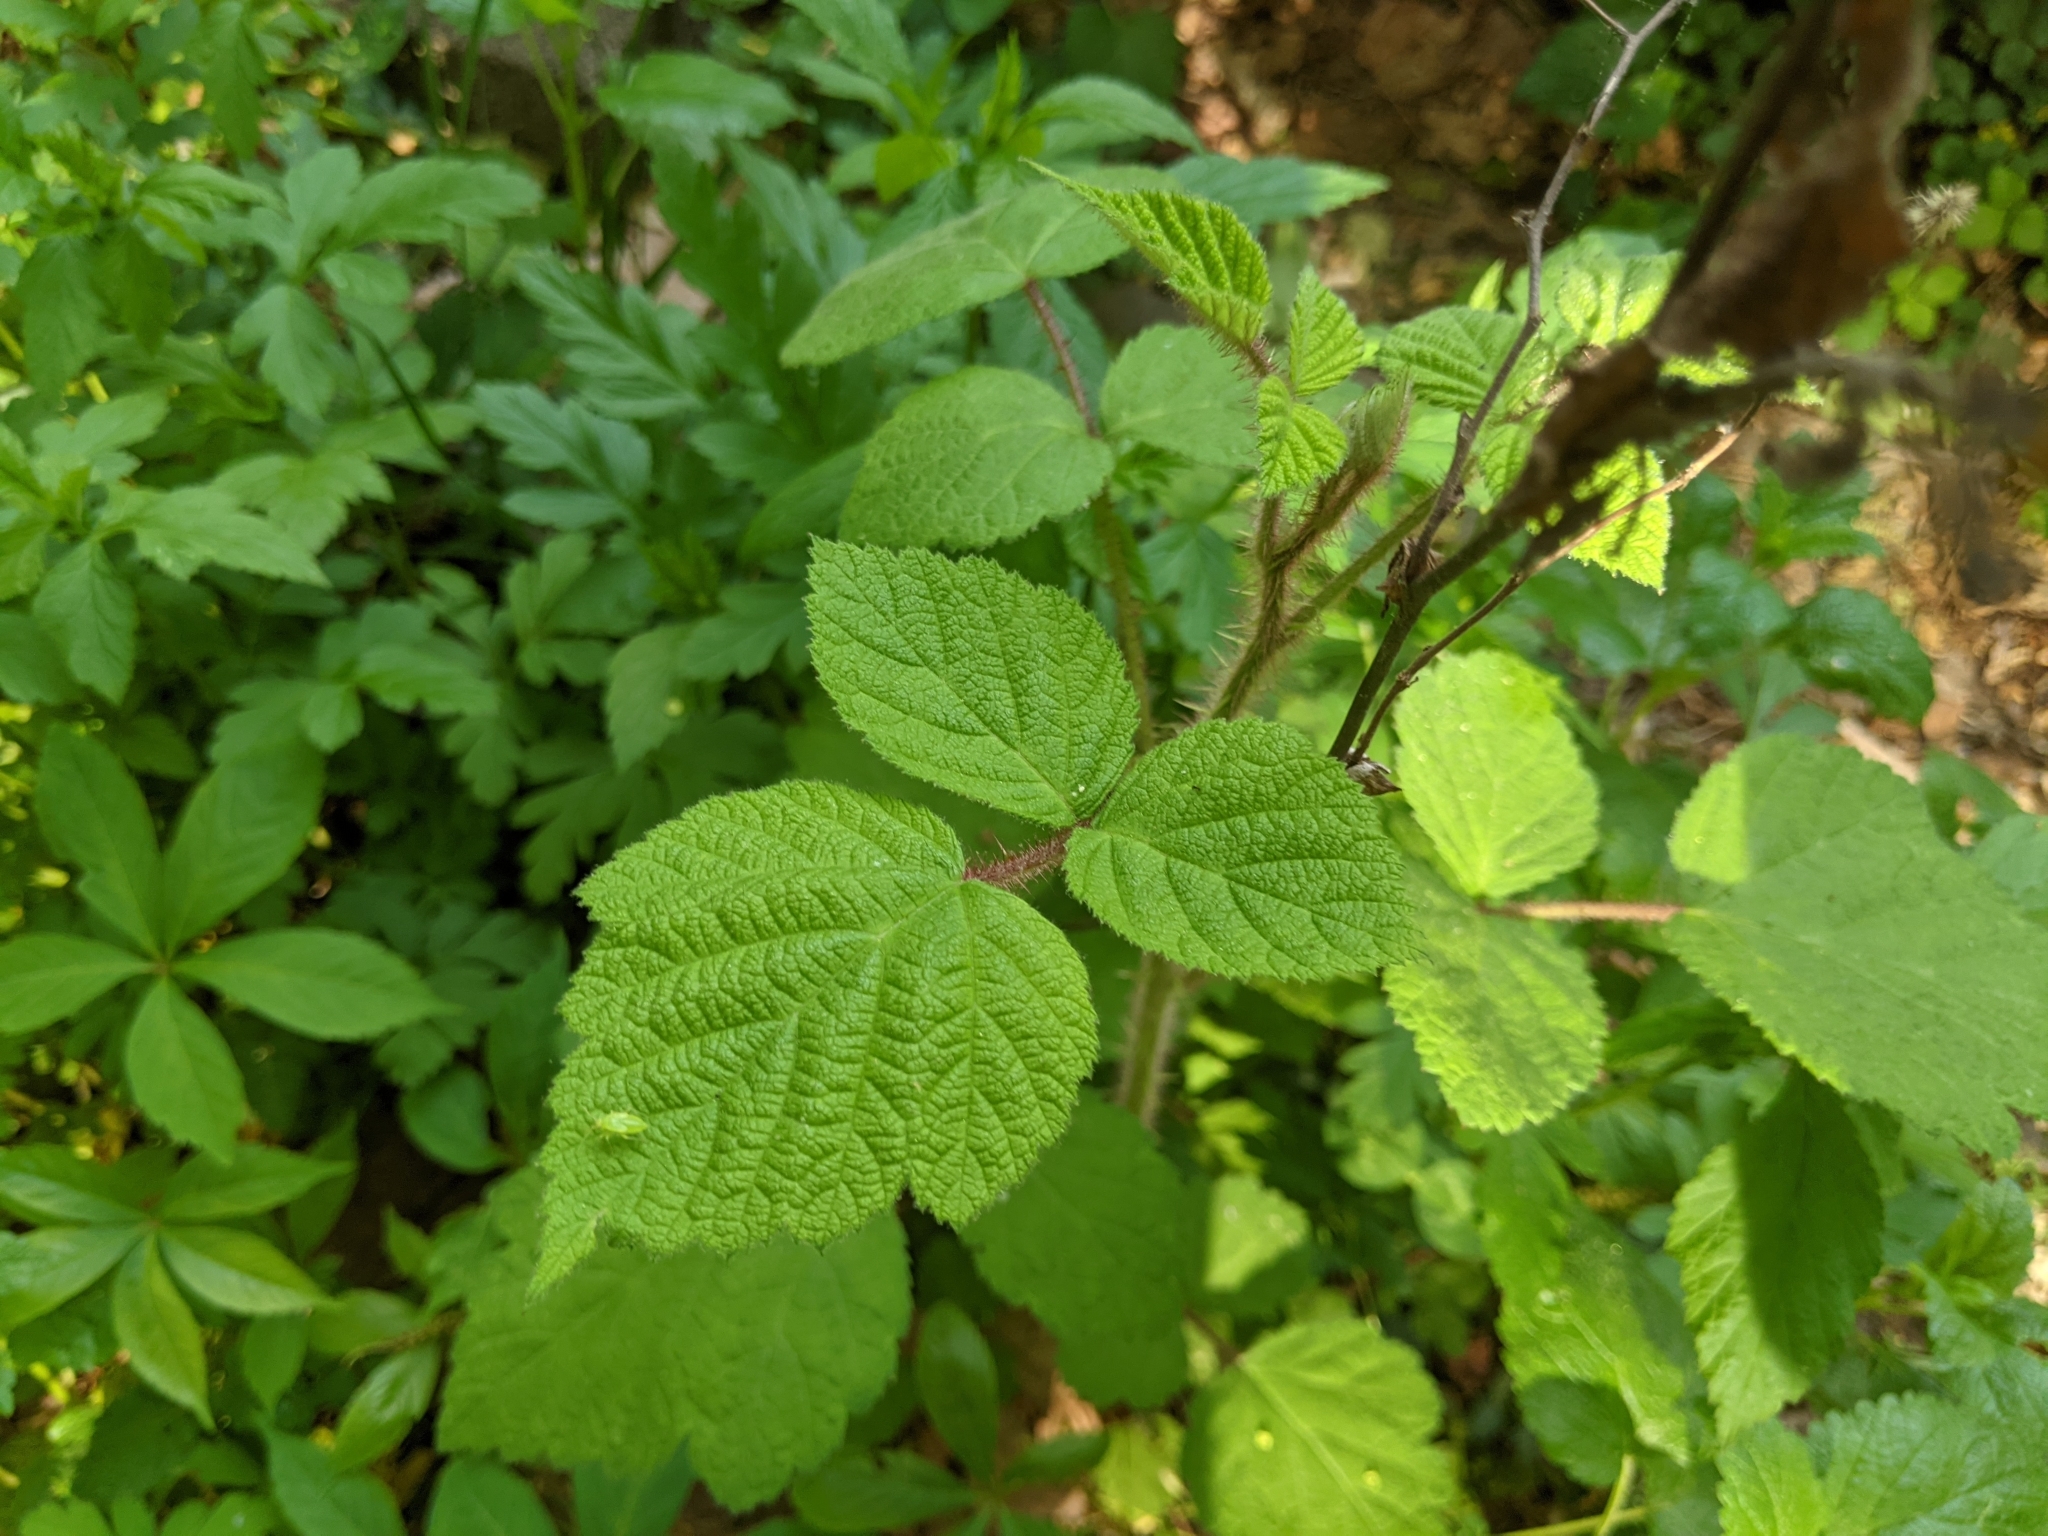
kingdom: Plantae
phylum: Tracheophyta
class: Magnoliopsida
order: Rosales
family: Rosaceae
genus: Rubus
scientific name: Rubus phoenicolasius
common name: Japanese wineberry
